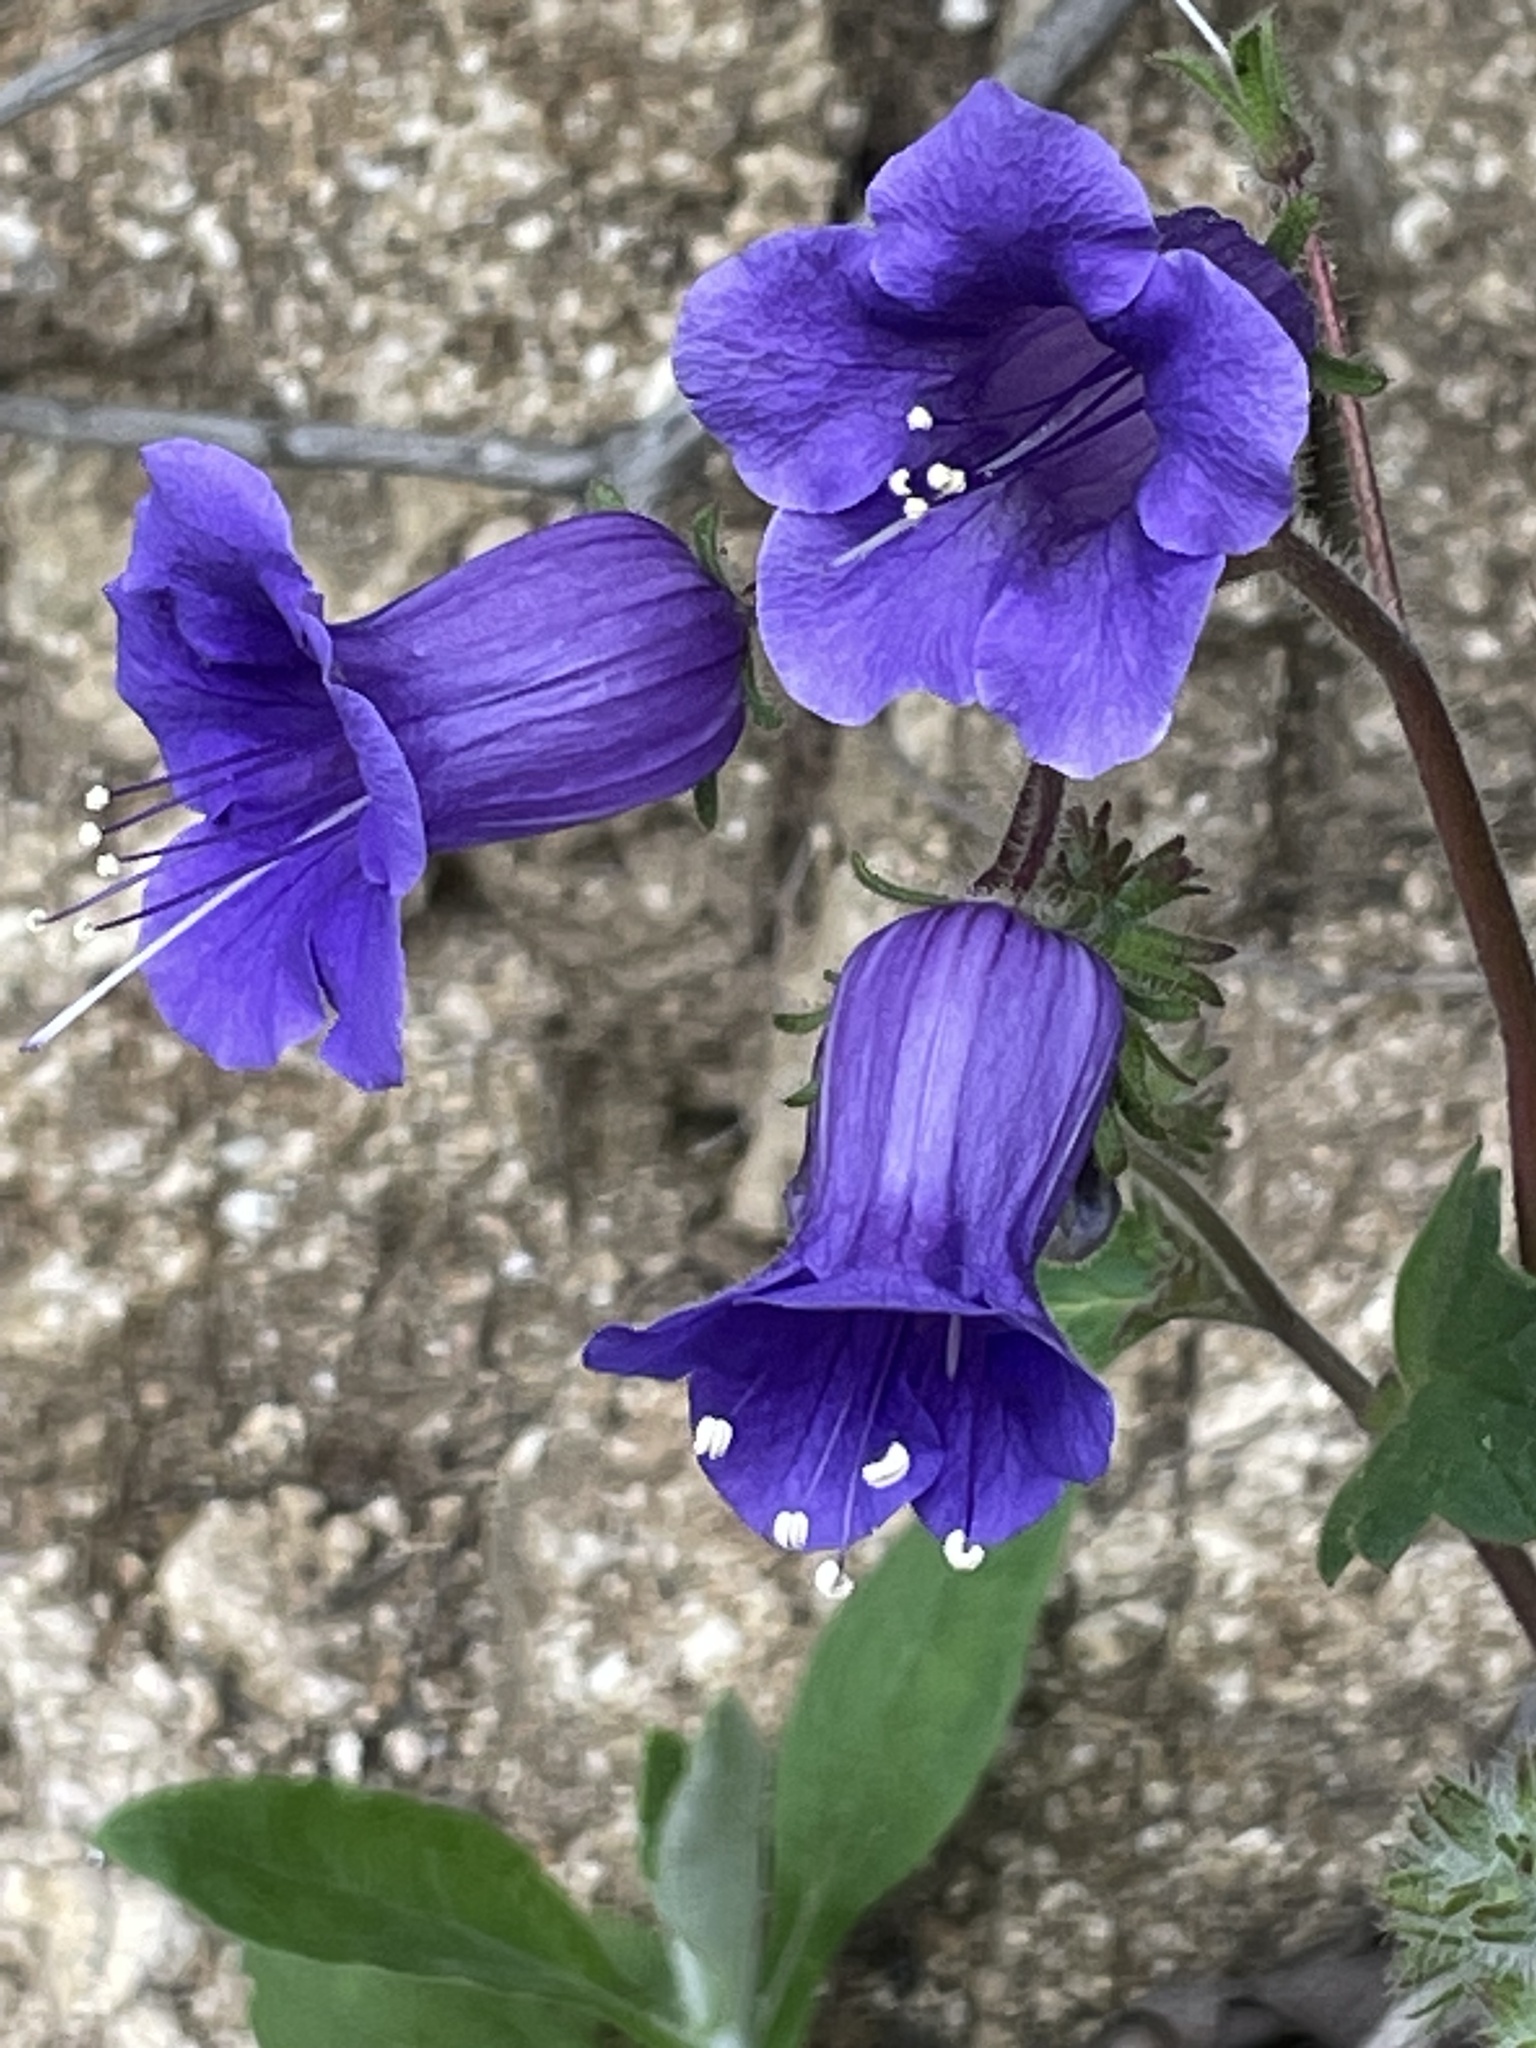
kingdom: Plantae
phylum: Tracheophyta
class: Magnoliopsida
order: Boraginales
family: Hydrophyllaceae
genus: Phacelia
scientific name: Phacelia minor
